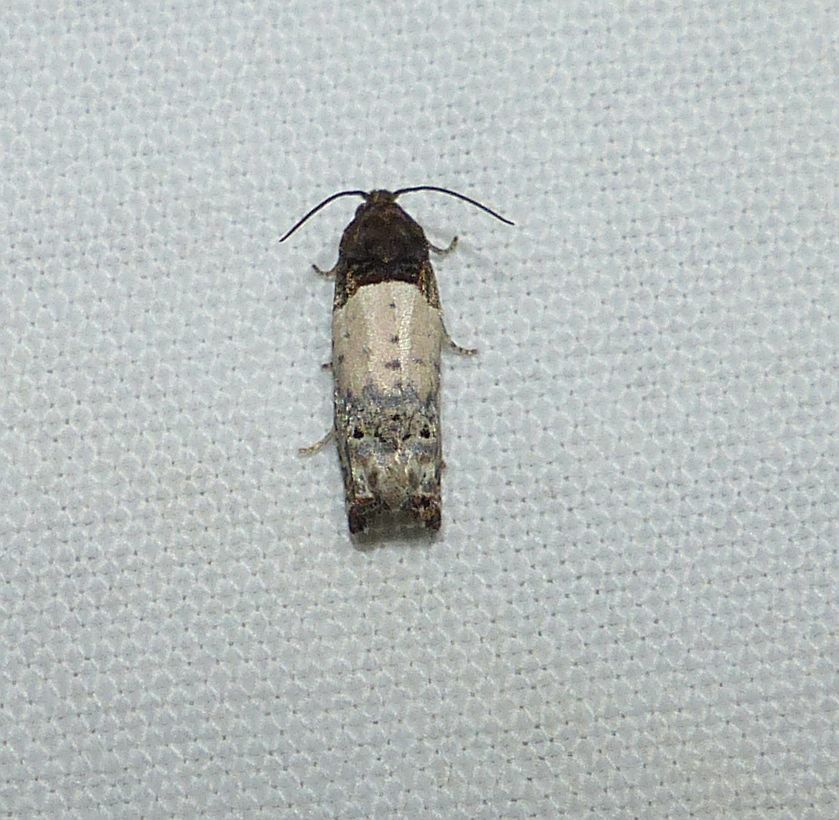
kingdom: Animalia
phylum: Arthropoda
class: Insecta
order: Lepidoptera
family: Tortricidae
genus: Epiblema
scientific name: Epiblema scudderiana
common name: Goldenrod gall moth
